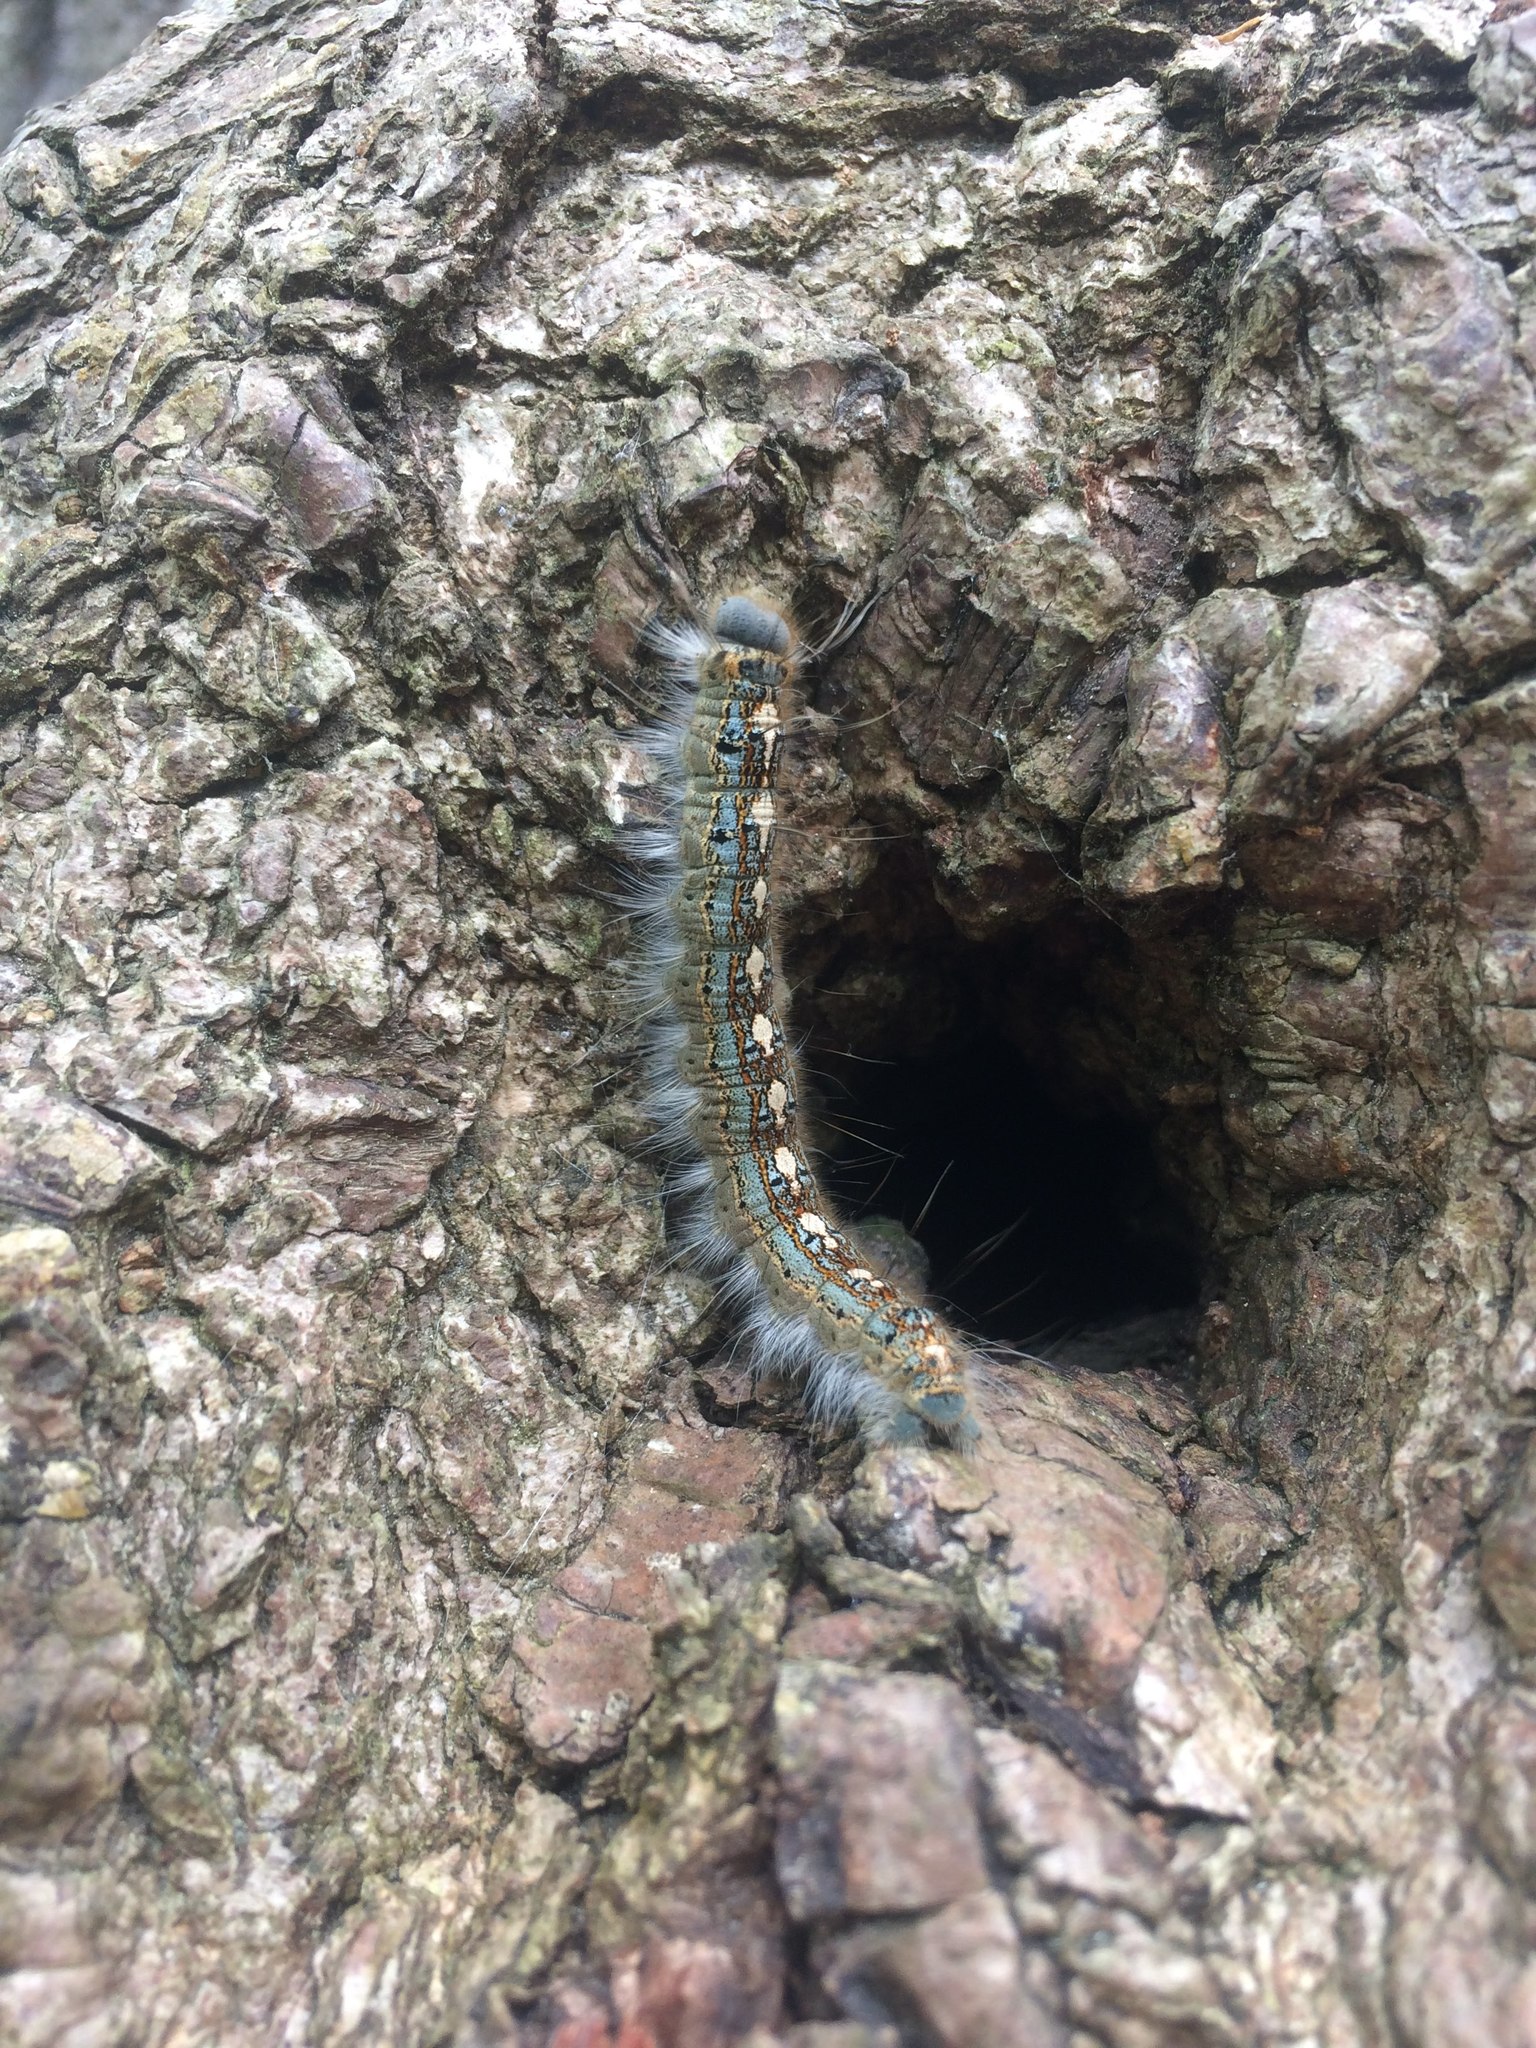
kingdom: Animalia
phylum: Arthropoda
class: Insecta
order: Lepidoptera
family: Lasiocampidae
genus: Malacosoma
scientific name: Malacosoma disstria
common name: Forest tent caterpillar
